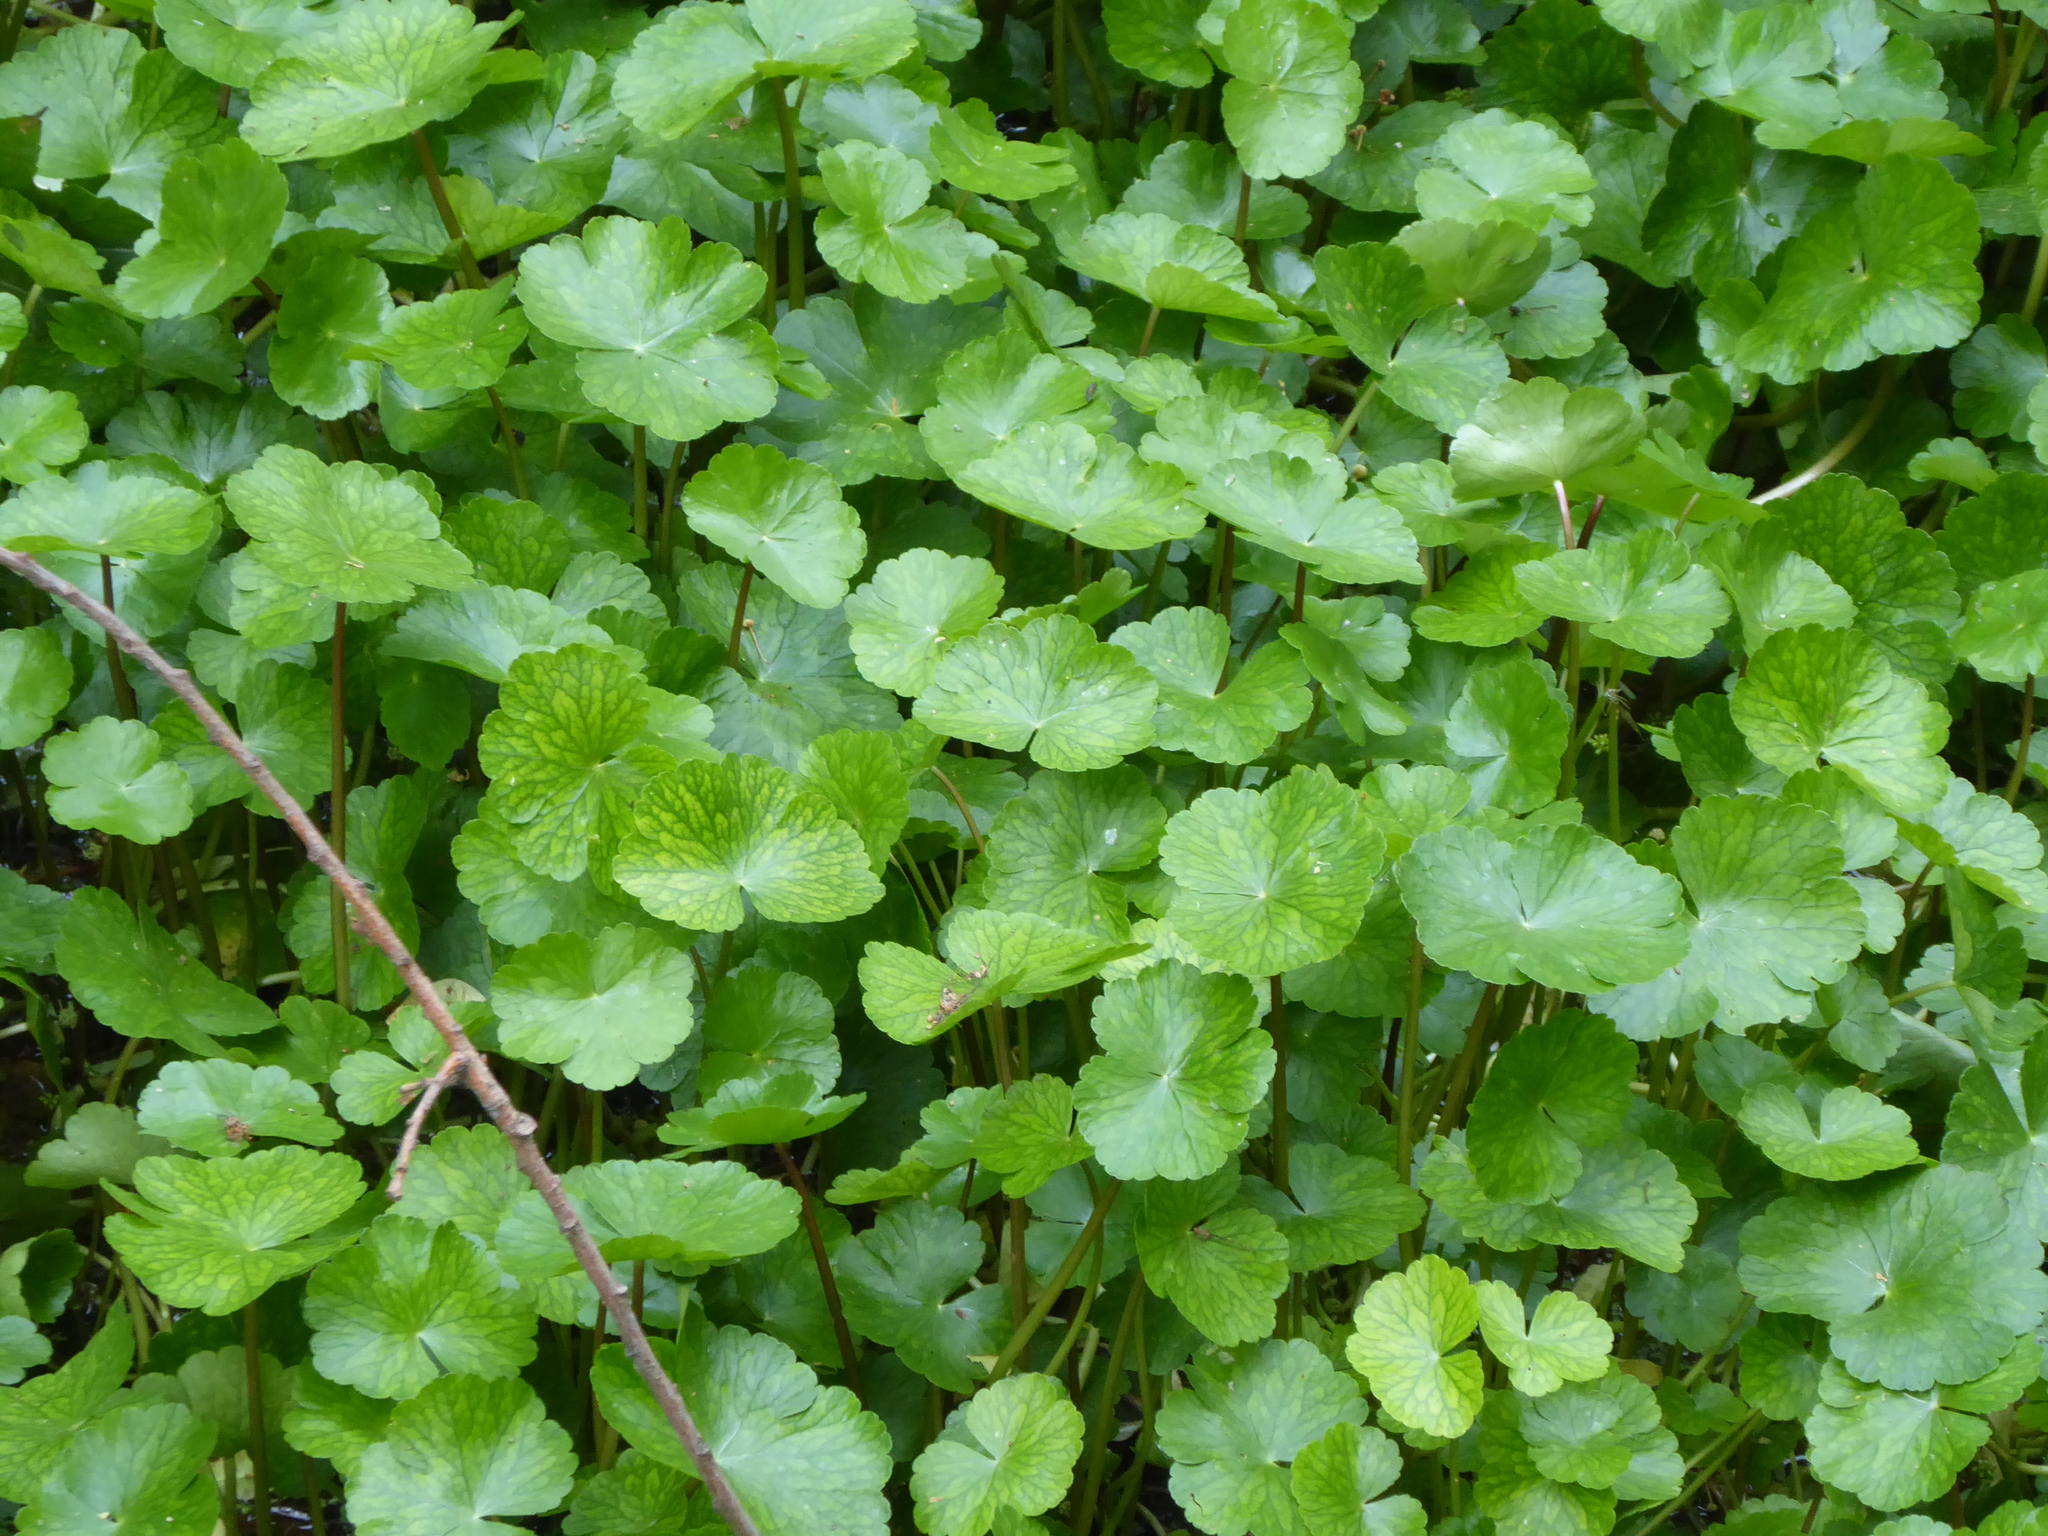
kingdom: Plantae
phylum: Tracheophyta
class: Magnoliopsida
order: Apiales
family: Araliaceae
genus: Hydrocotyle
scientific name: Hydrocotyle ranunculoides
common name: Floating pennywort
